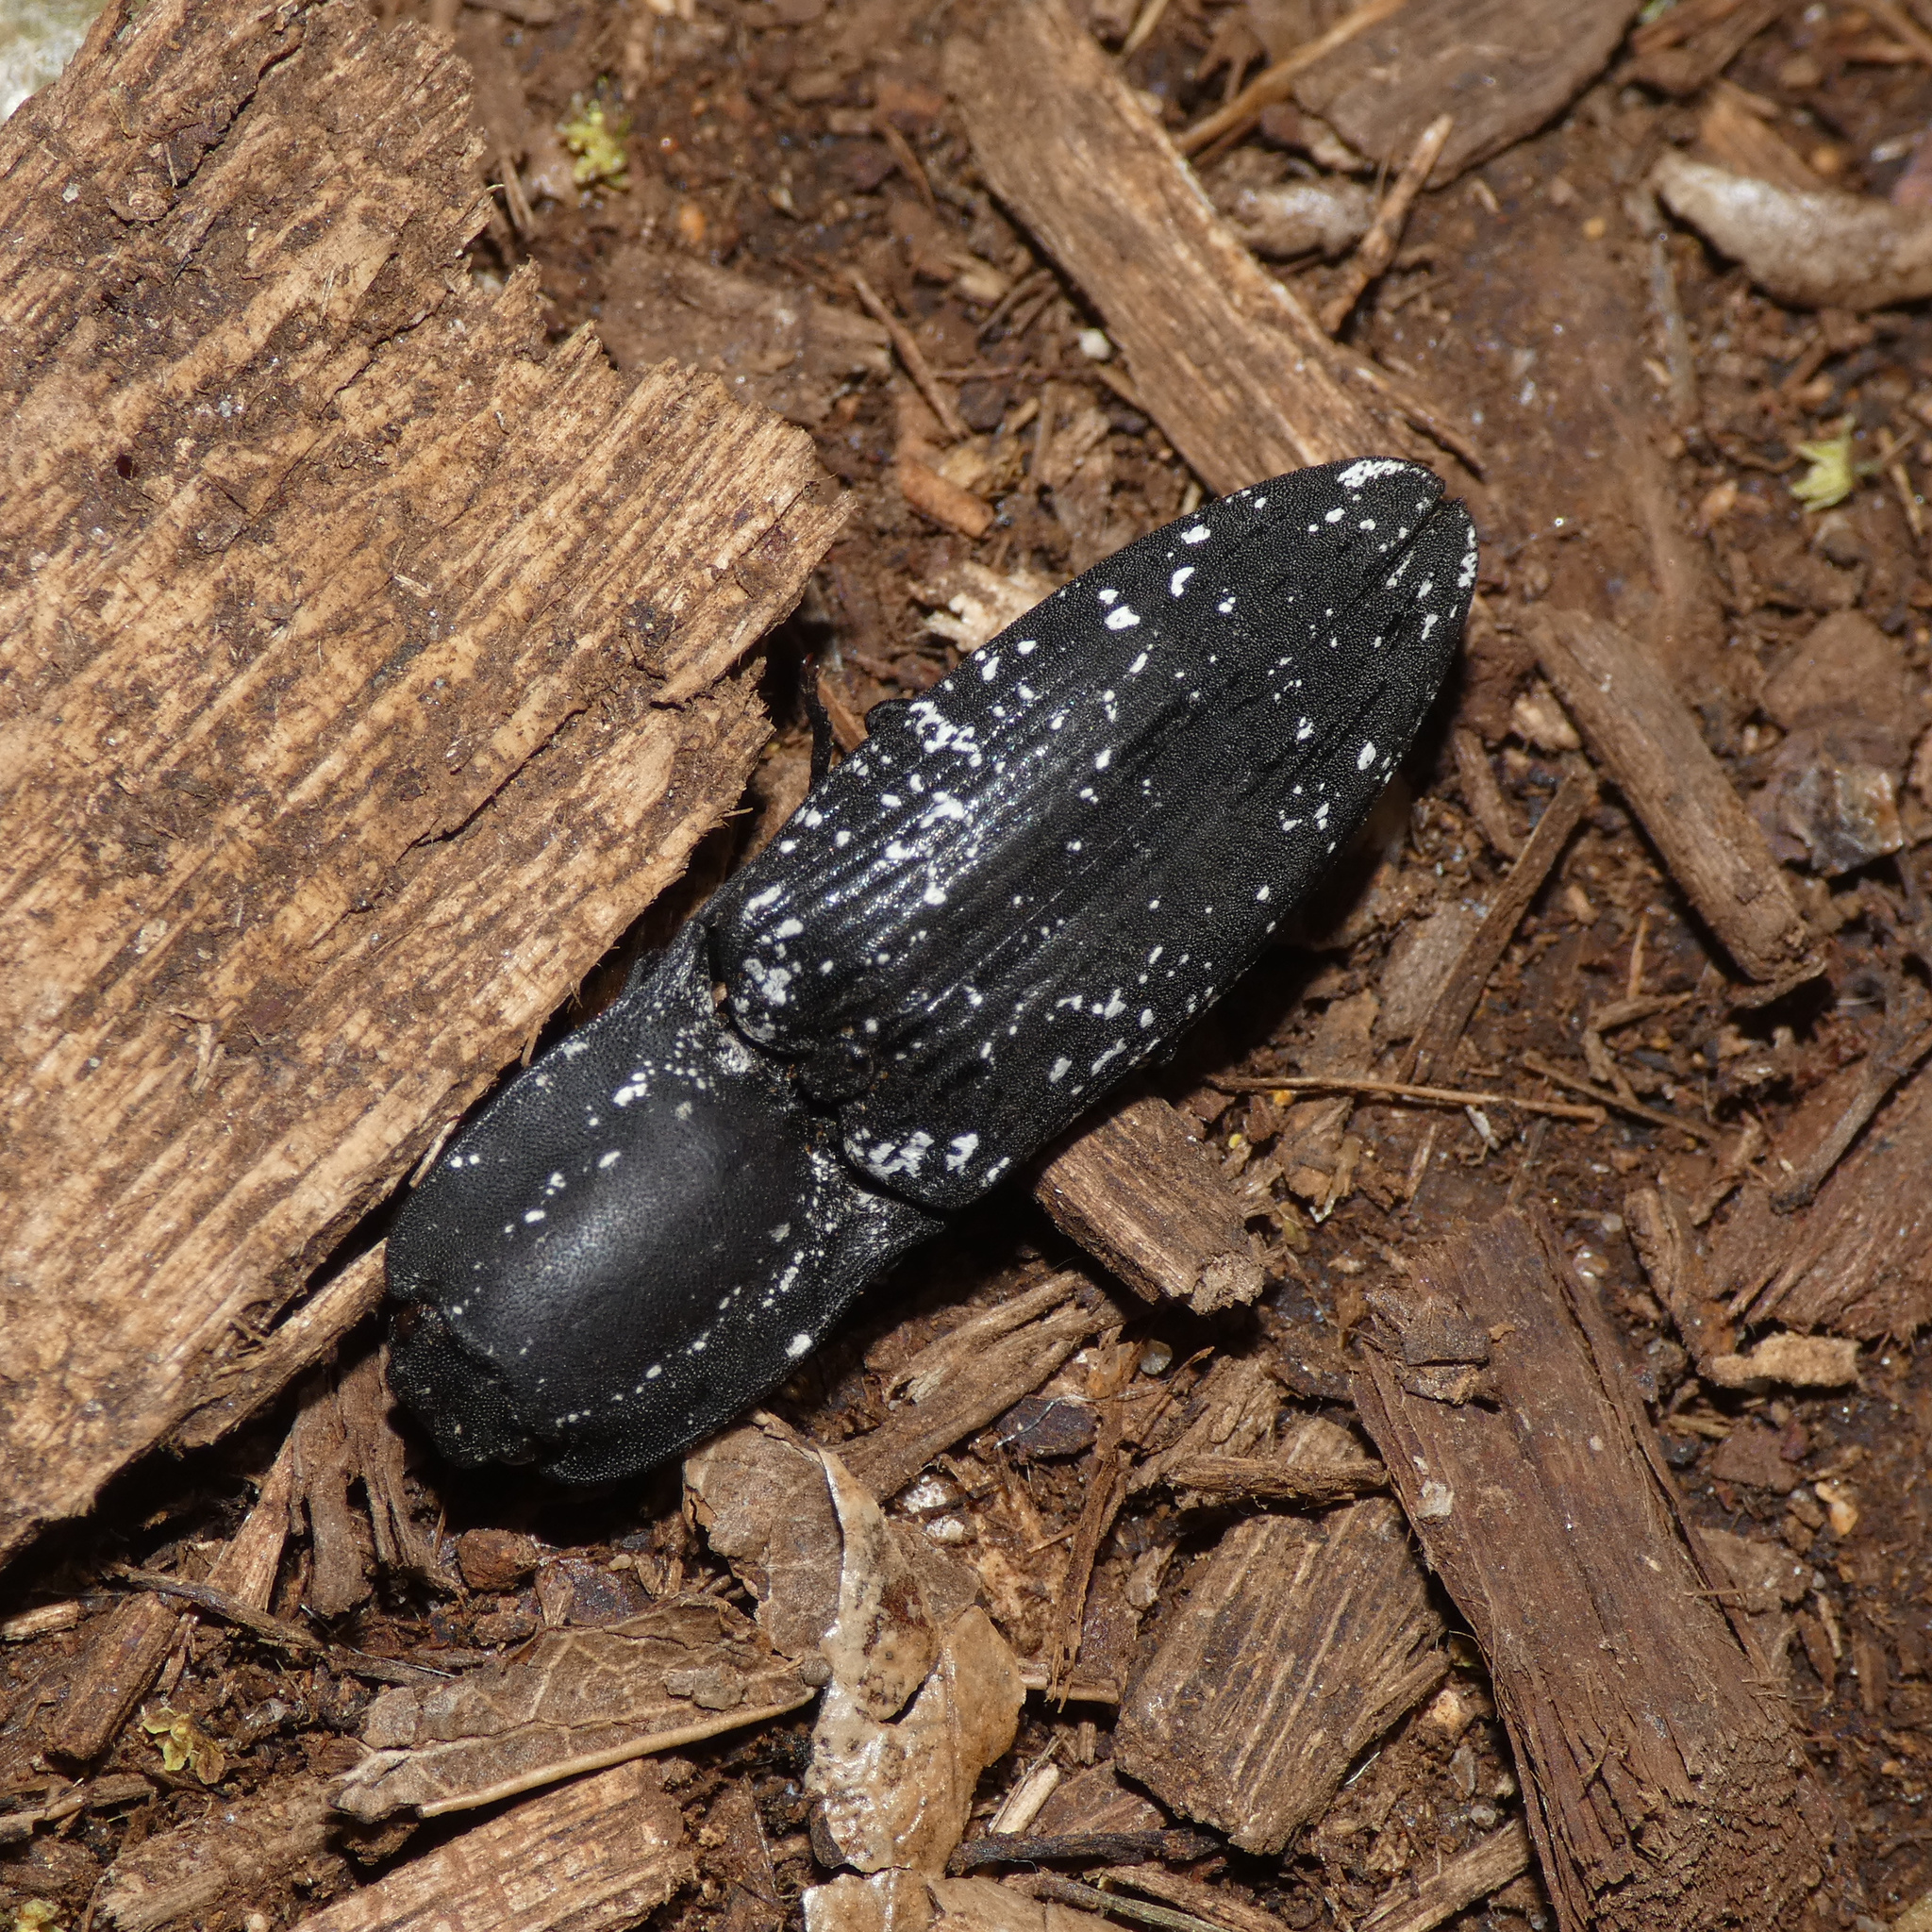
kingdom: Animalia
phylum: Arthropoda
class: Insecta
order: Coleoptera
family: Elateridae
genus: Aliteus
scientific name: Aliteus
